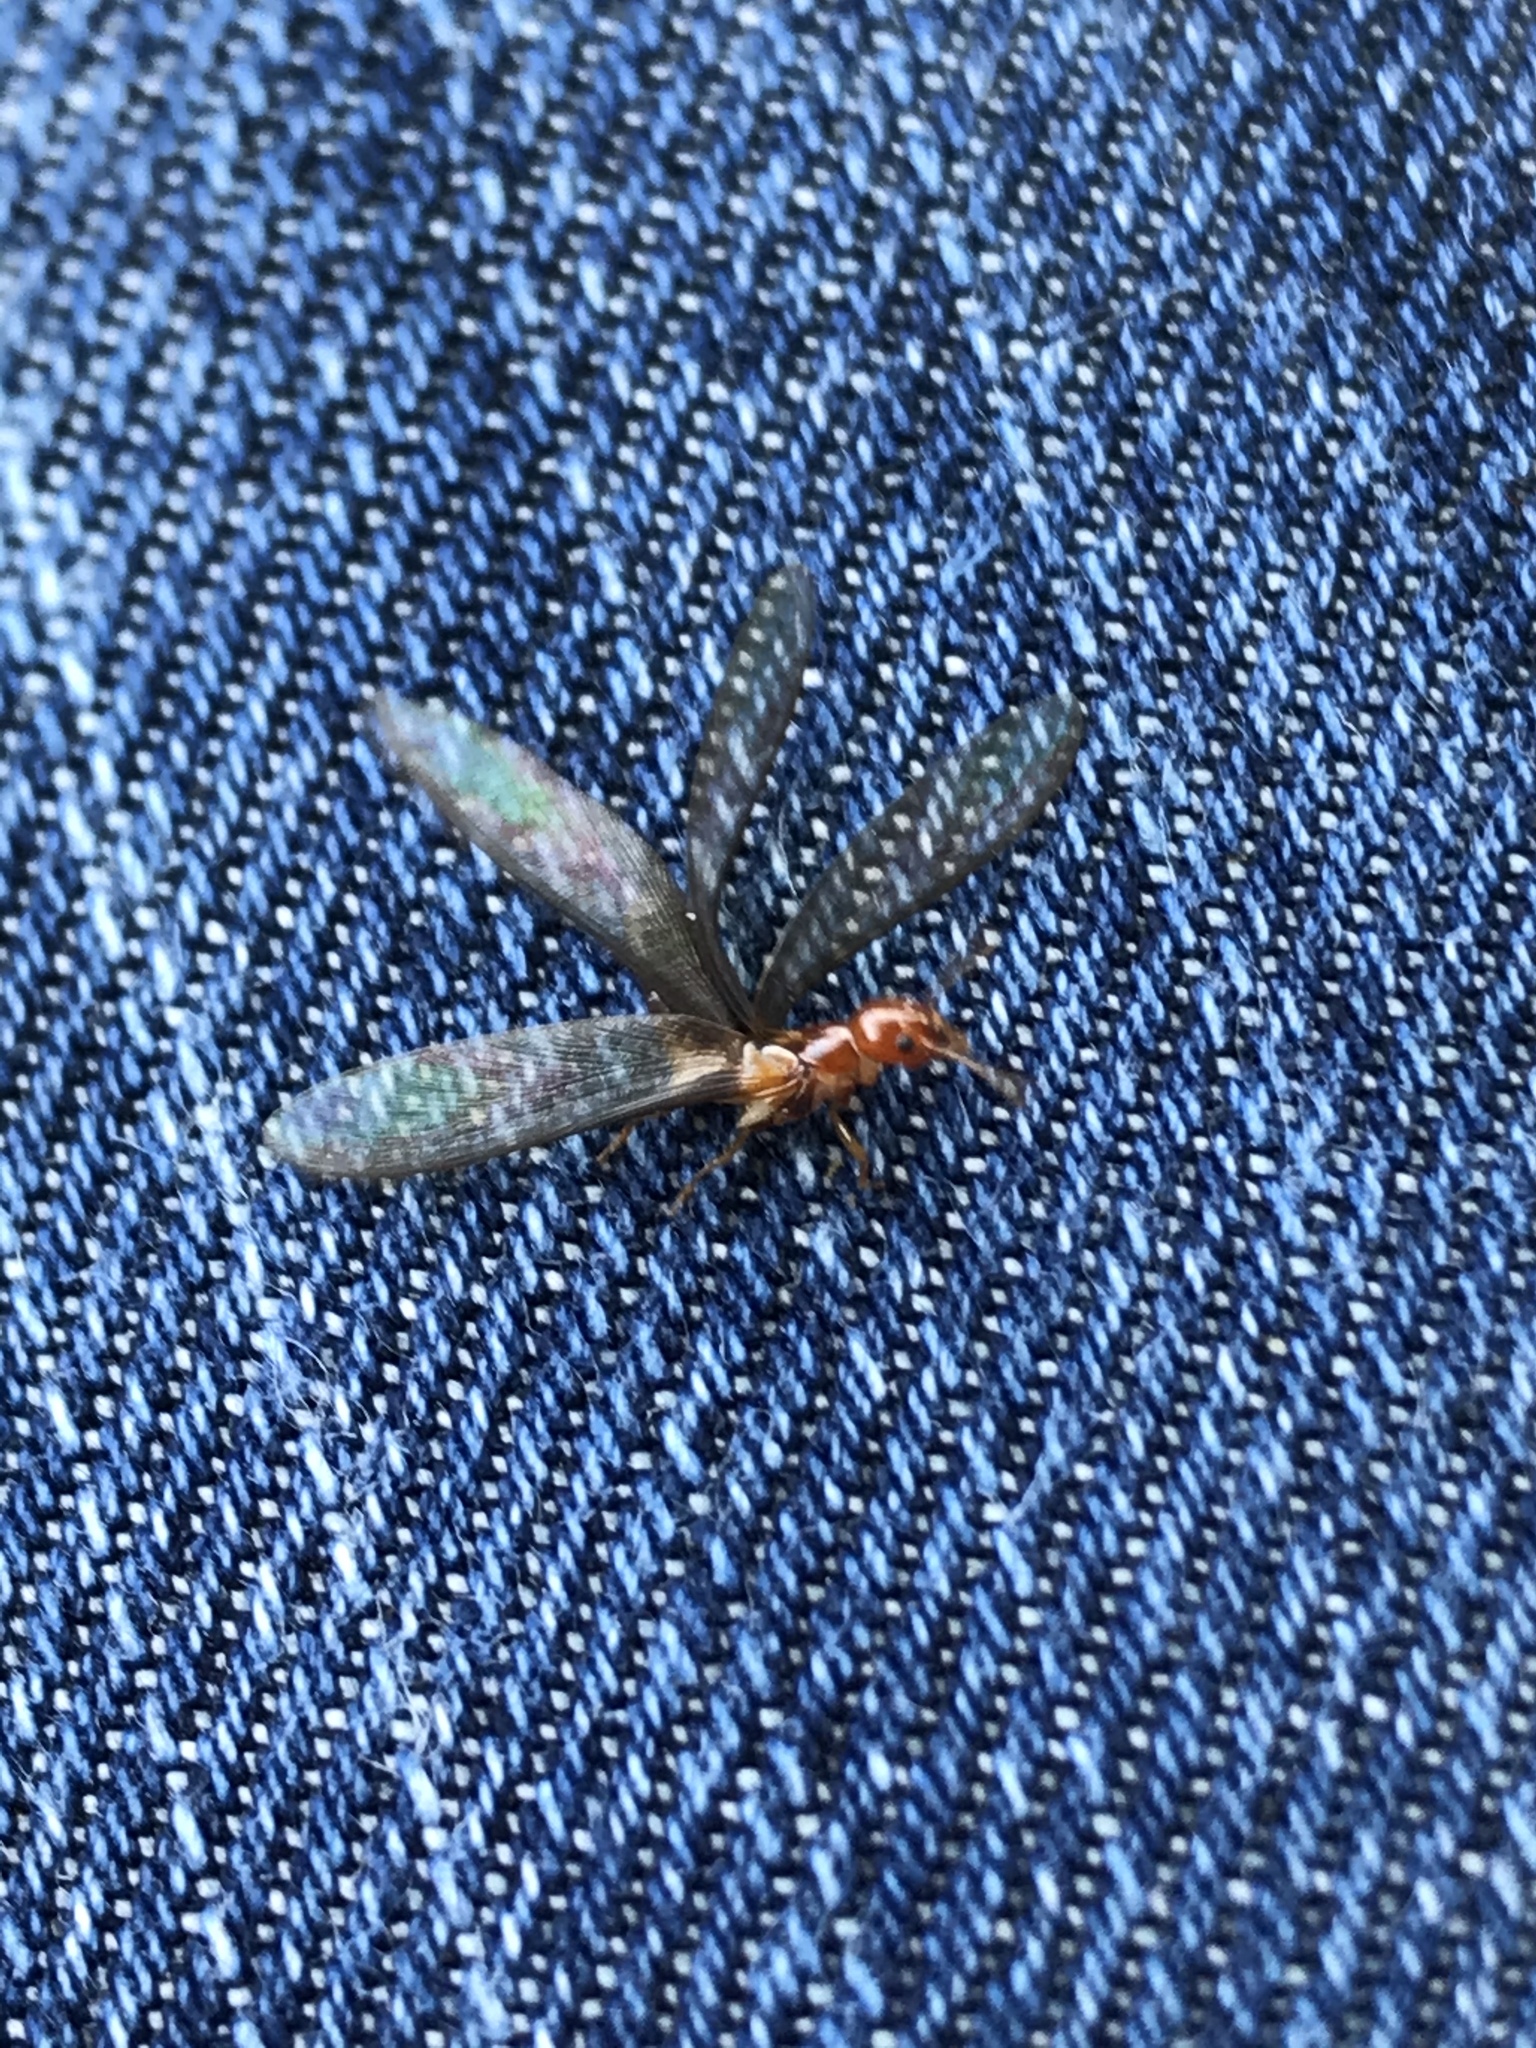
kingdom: Animalia
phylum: Arthropoda
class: Insecta
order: Blattodea
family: Kalotermitidae
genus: Incisitermes
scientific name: Incisitermes minor
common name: Termite
